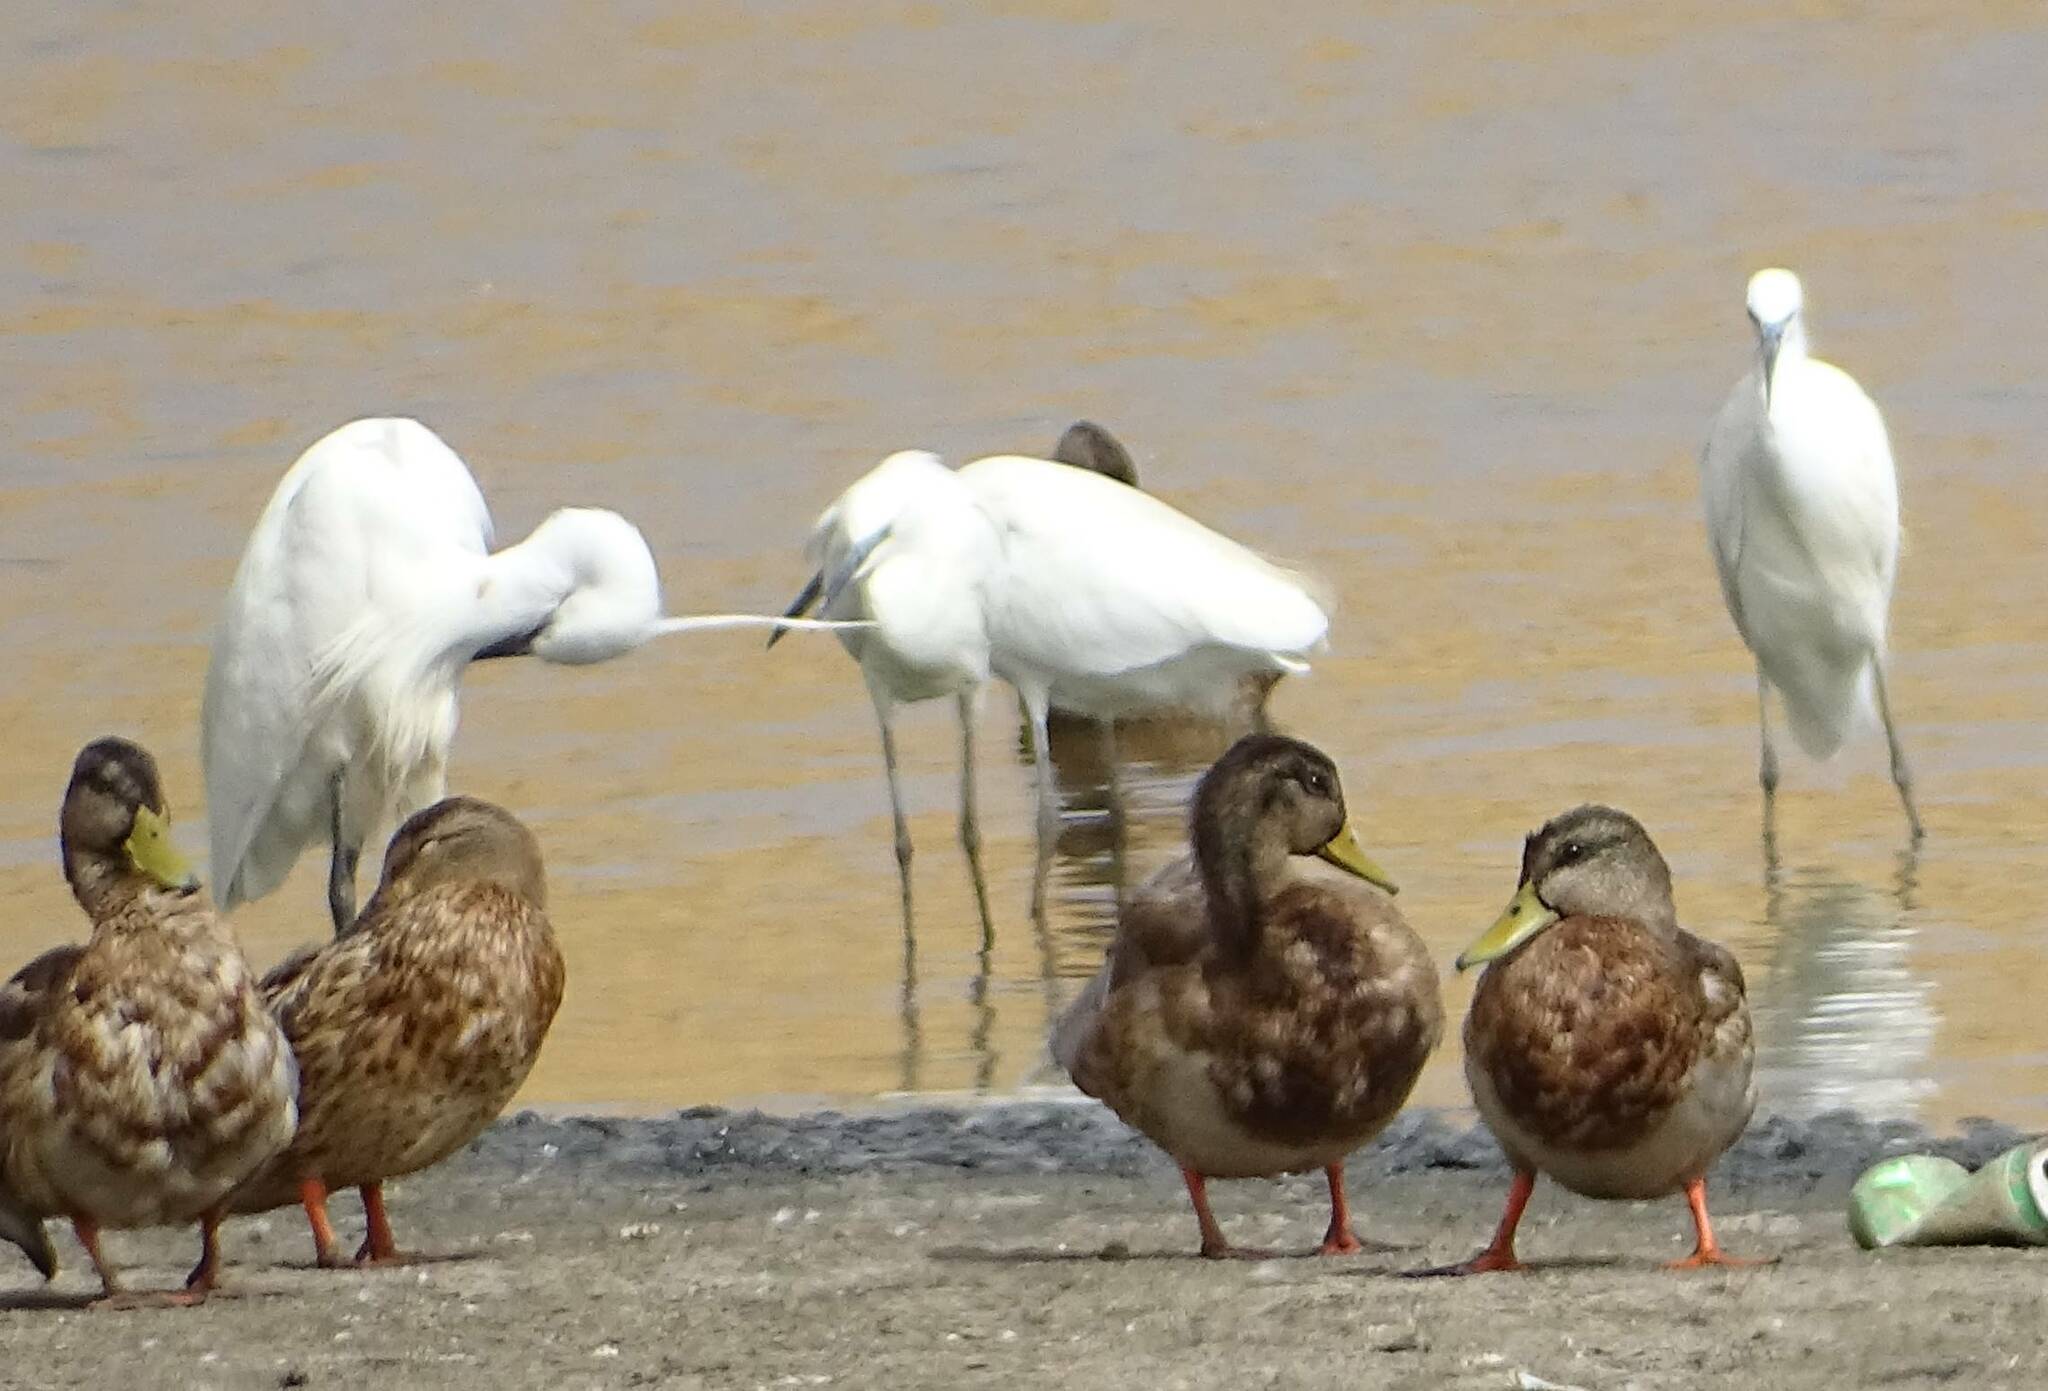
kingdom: Animalia
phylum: Chordata
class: Aves
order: Pelecaniformes
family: Ardeidae
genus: Egretta
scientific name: Egretta garzetta
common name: Little egret
